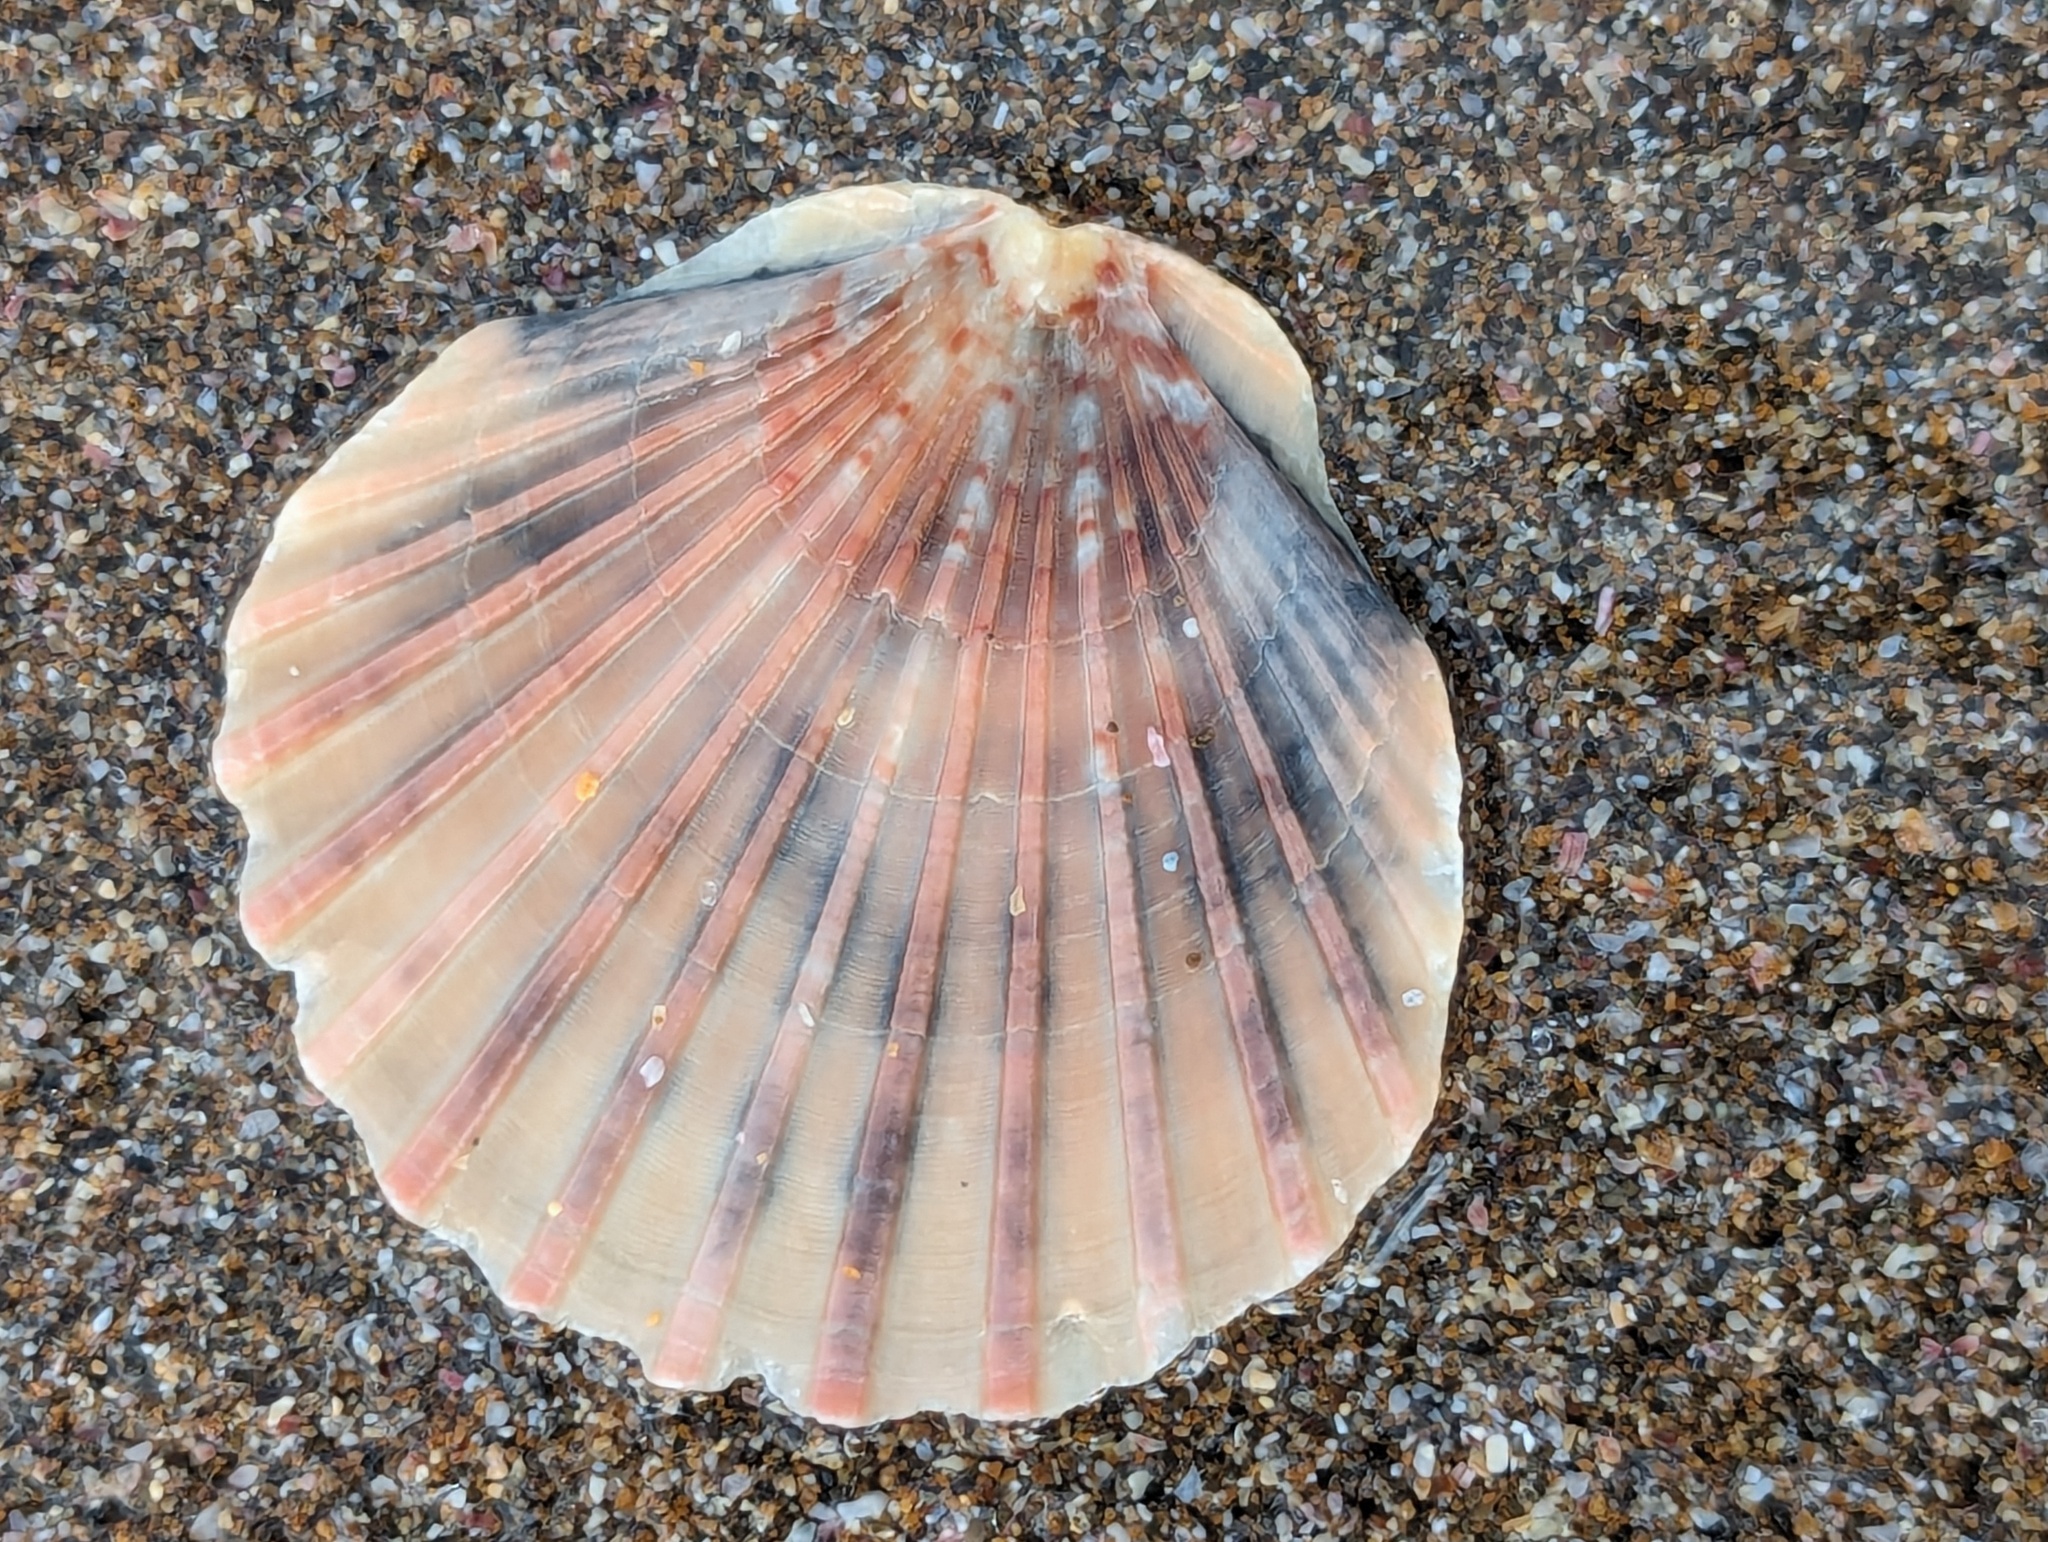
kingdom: Animalia
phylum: Mollusca
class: Bivalvia
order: Pectinida
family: Pectinidae
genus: Pecten
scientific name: Pecten novaezelandiae
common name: New zealand scallop
